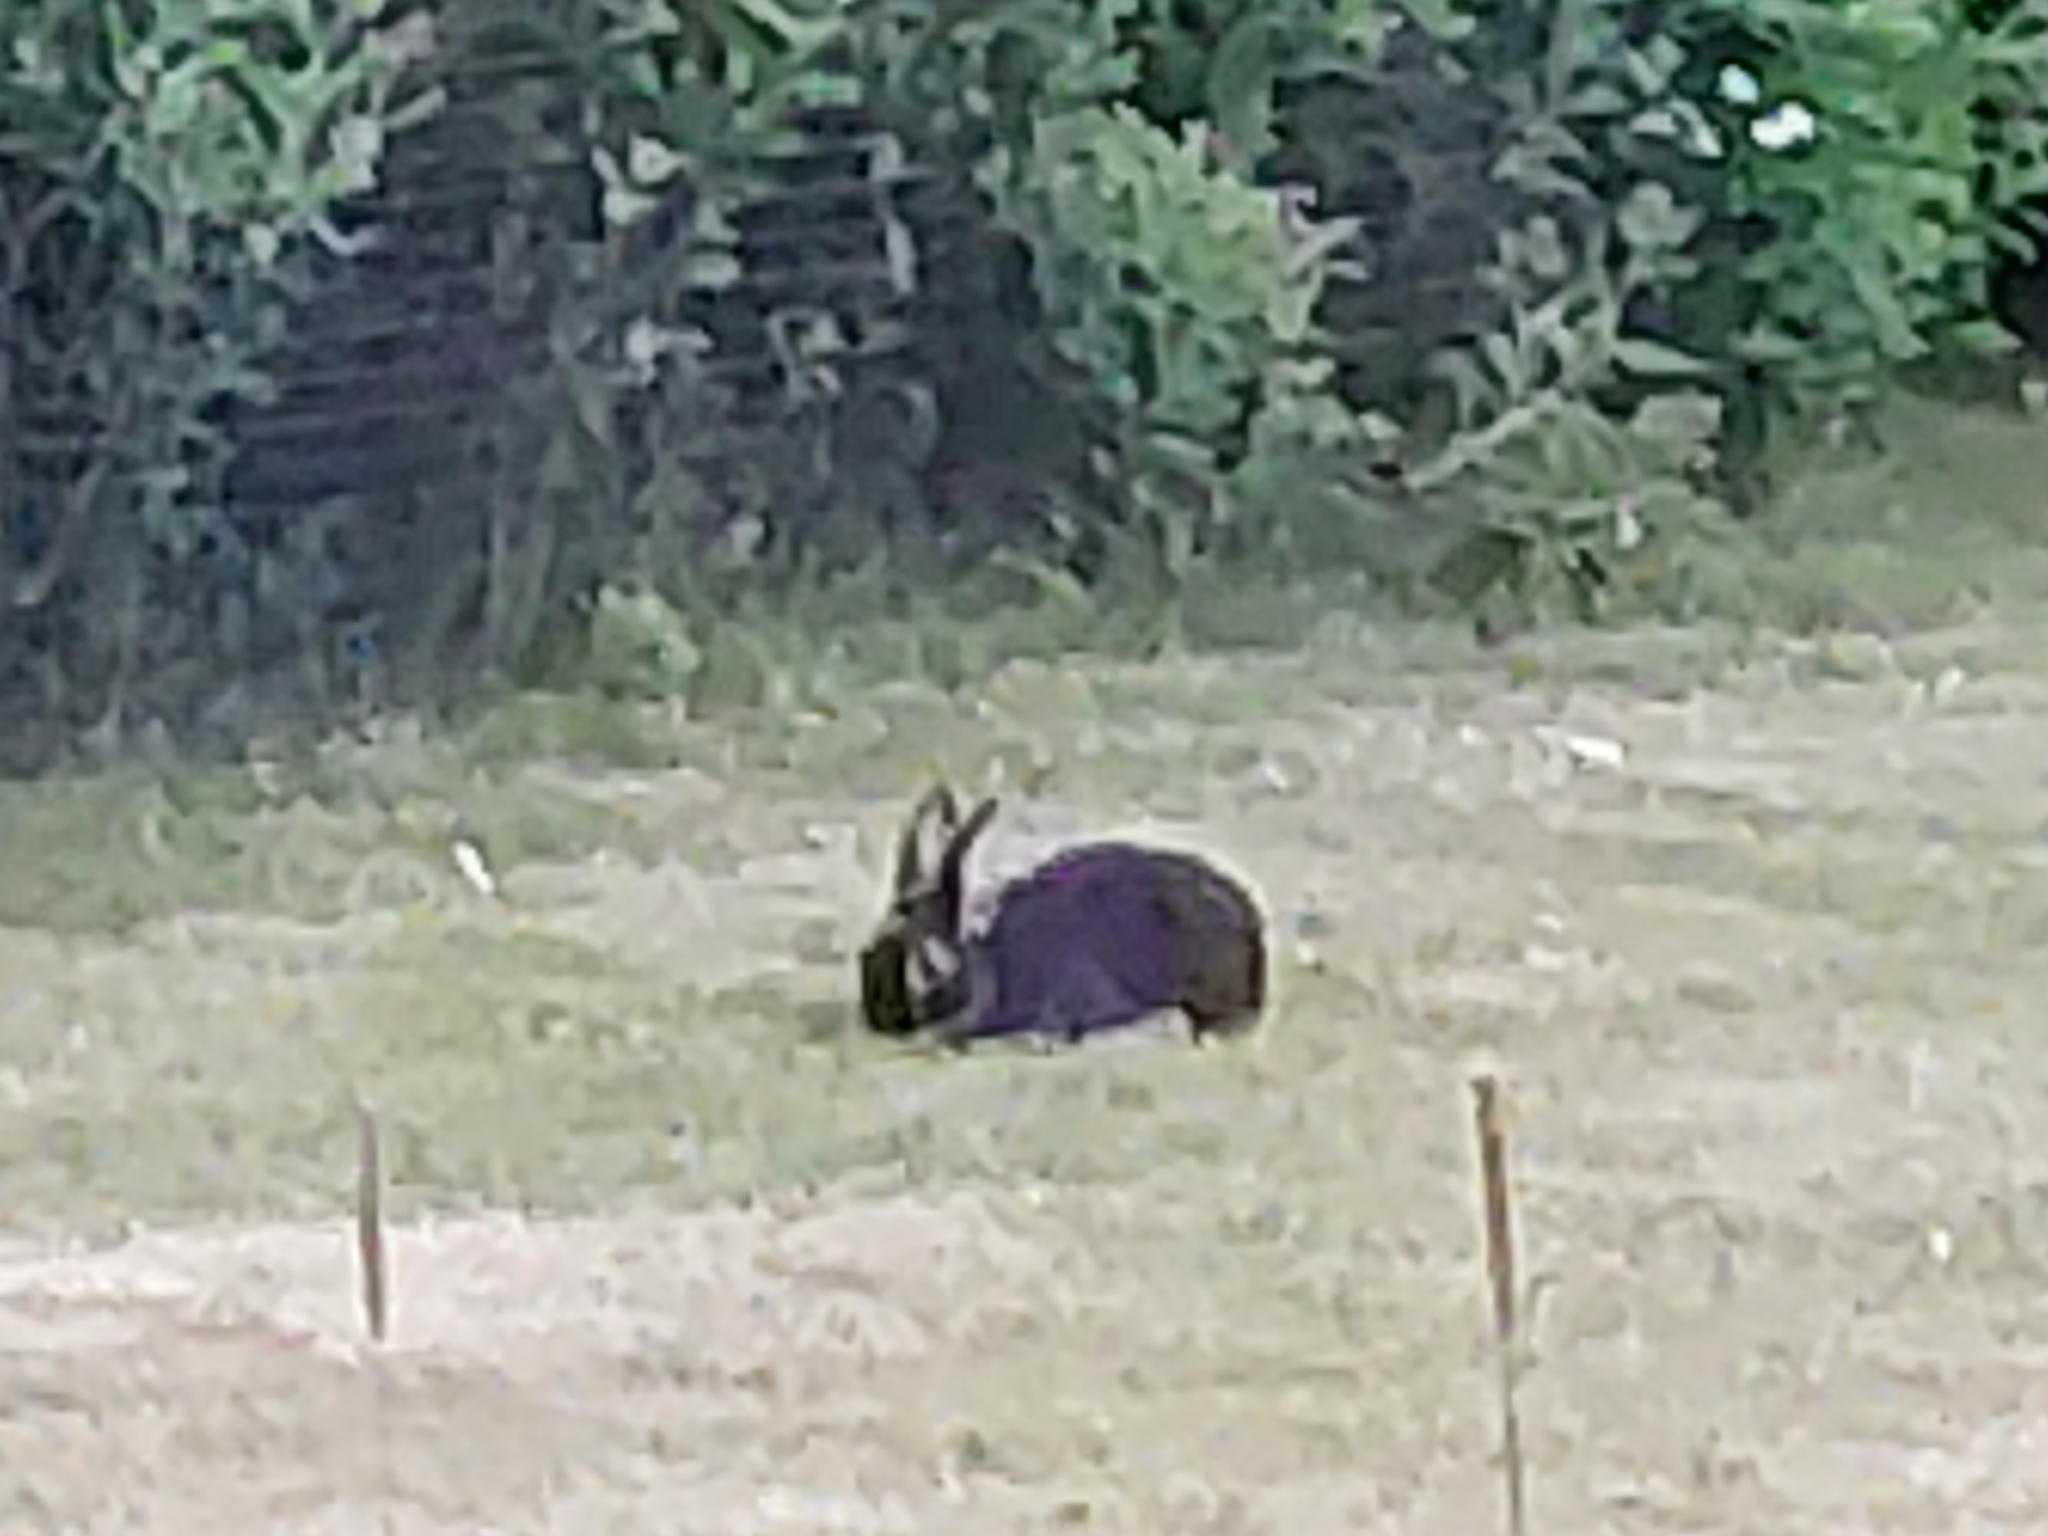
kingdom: Animalia
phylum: Chordata
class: Mammalia
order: Lagomorpha
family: Leporidae
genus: Oryctolagus
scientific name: Oryctolagus cuniculus
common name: European rabbit
